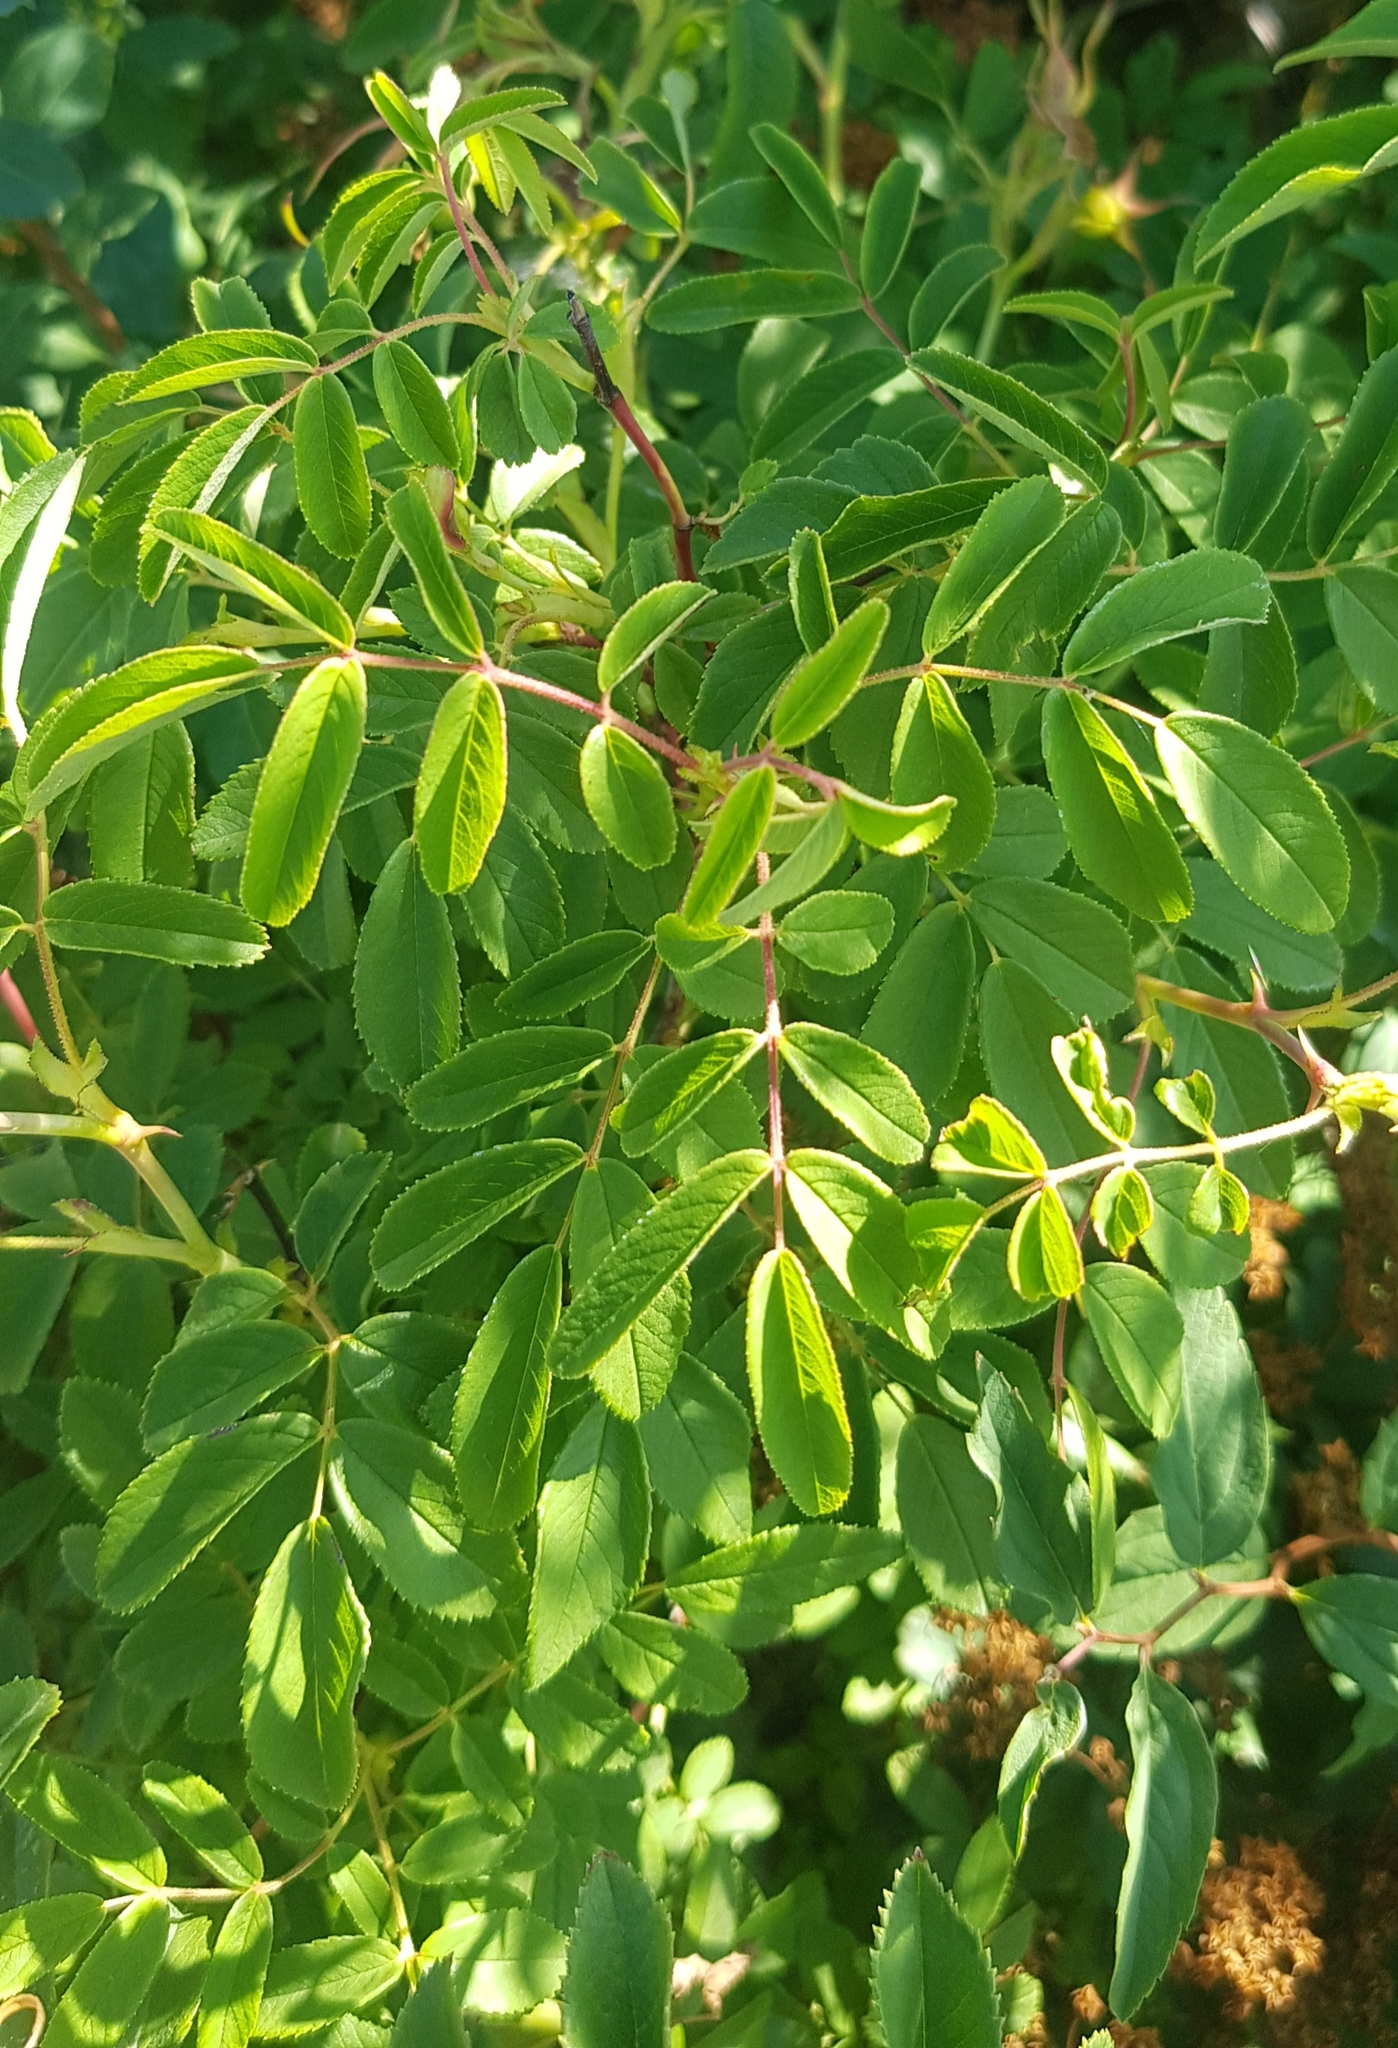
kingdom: Plantae
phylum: Tracheophyta
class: Magnoliopsida
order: Rosales
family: Rosaceae
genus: Rosa
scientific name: Rosa acicularis
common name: Prickly rose
